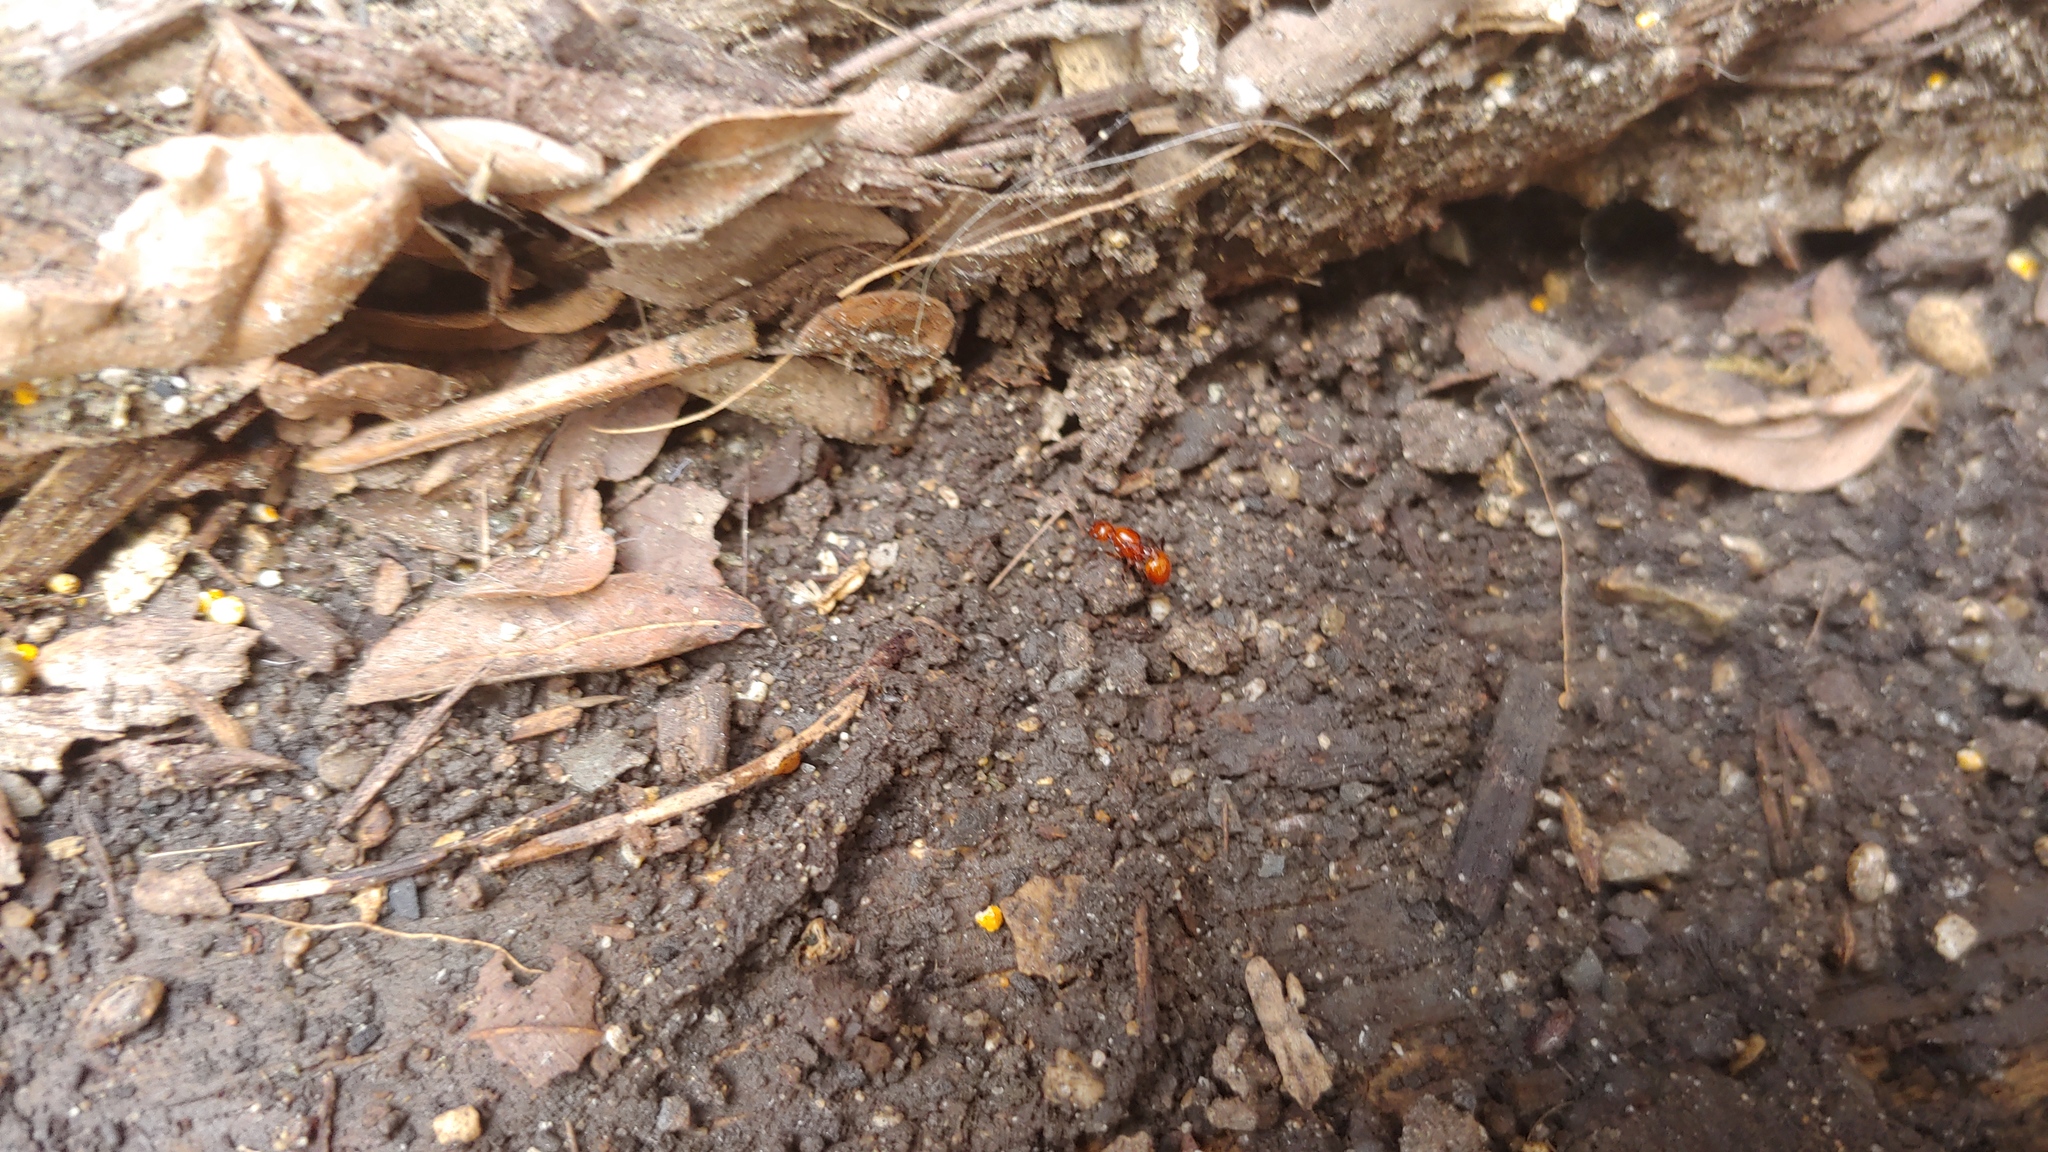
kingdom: Animalia
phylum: Arthropoda
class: Insecta
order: Hymenoptera
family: Formicidae
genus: Aphaenogaster
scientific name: Aphaenogaster tennesseensis
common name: Tennessee thread-waisted ant
